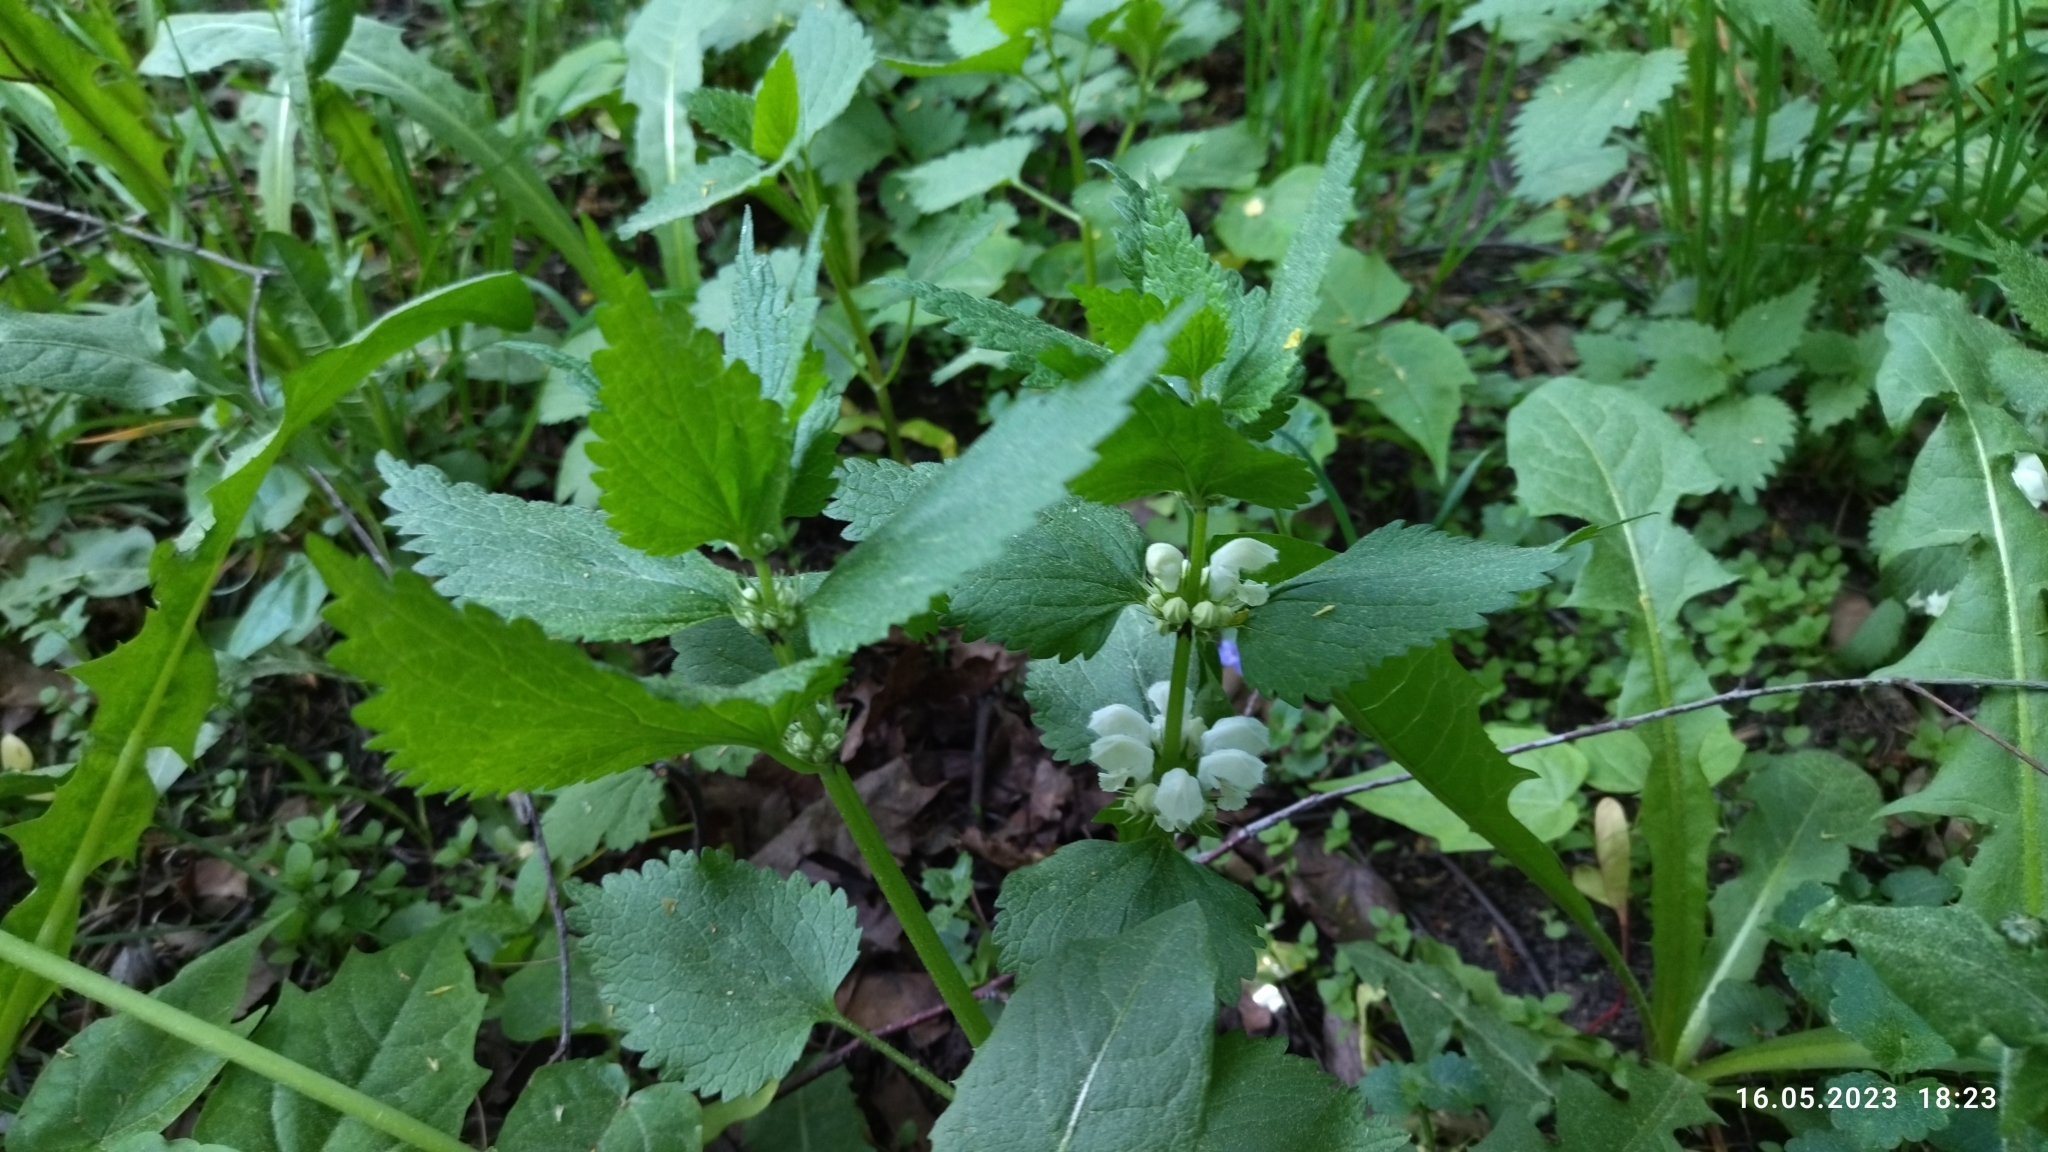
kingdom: Plantae
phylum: Tracheophyta
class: Magnoliopsida
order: Lamiales
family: Lamiaceae
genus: Lamium
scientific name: Lamium album
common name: White dead-nettle
